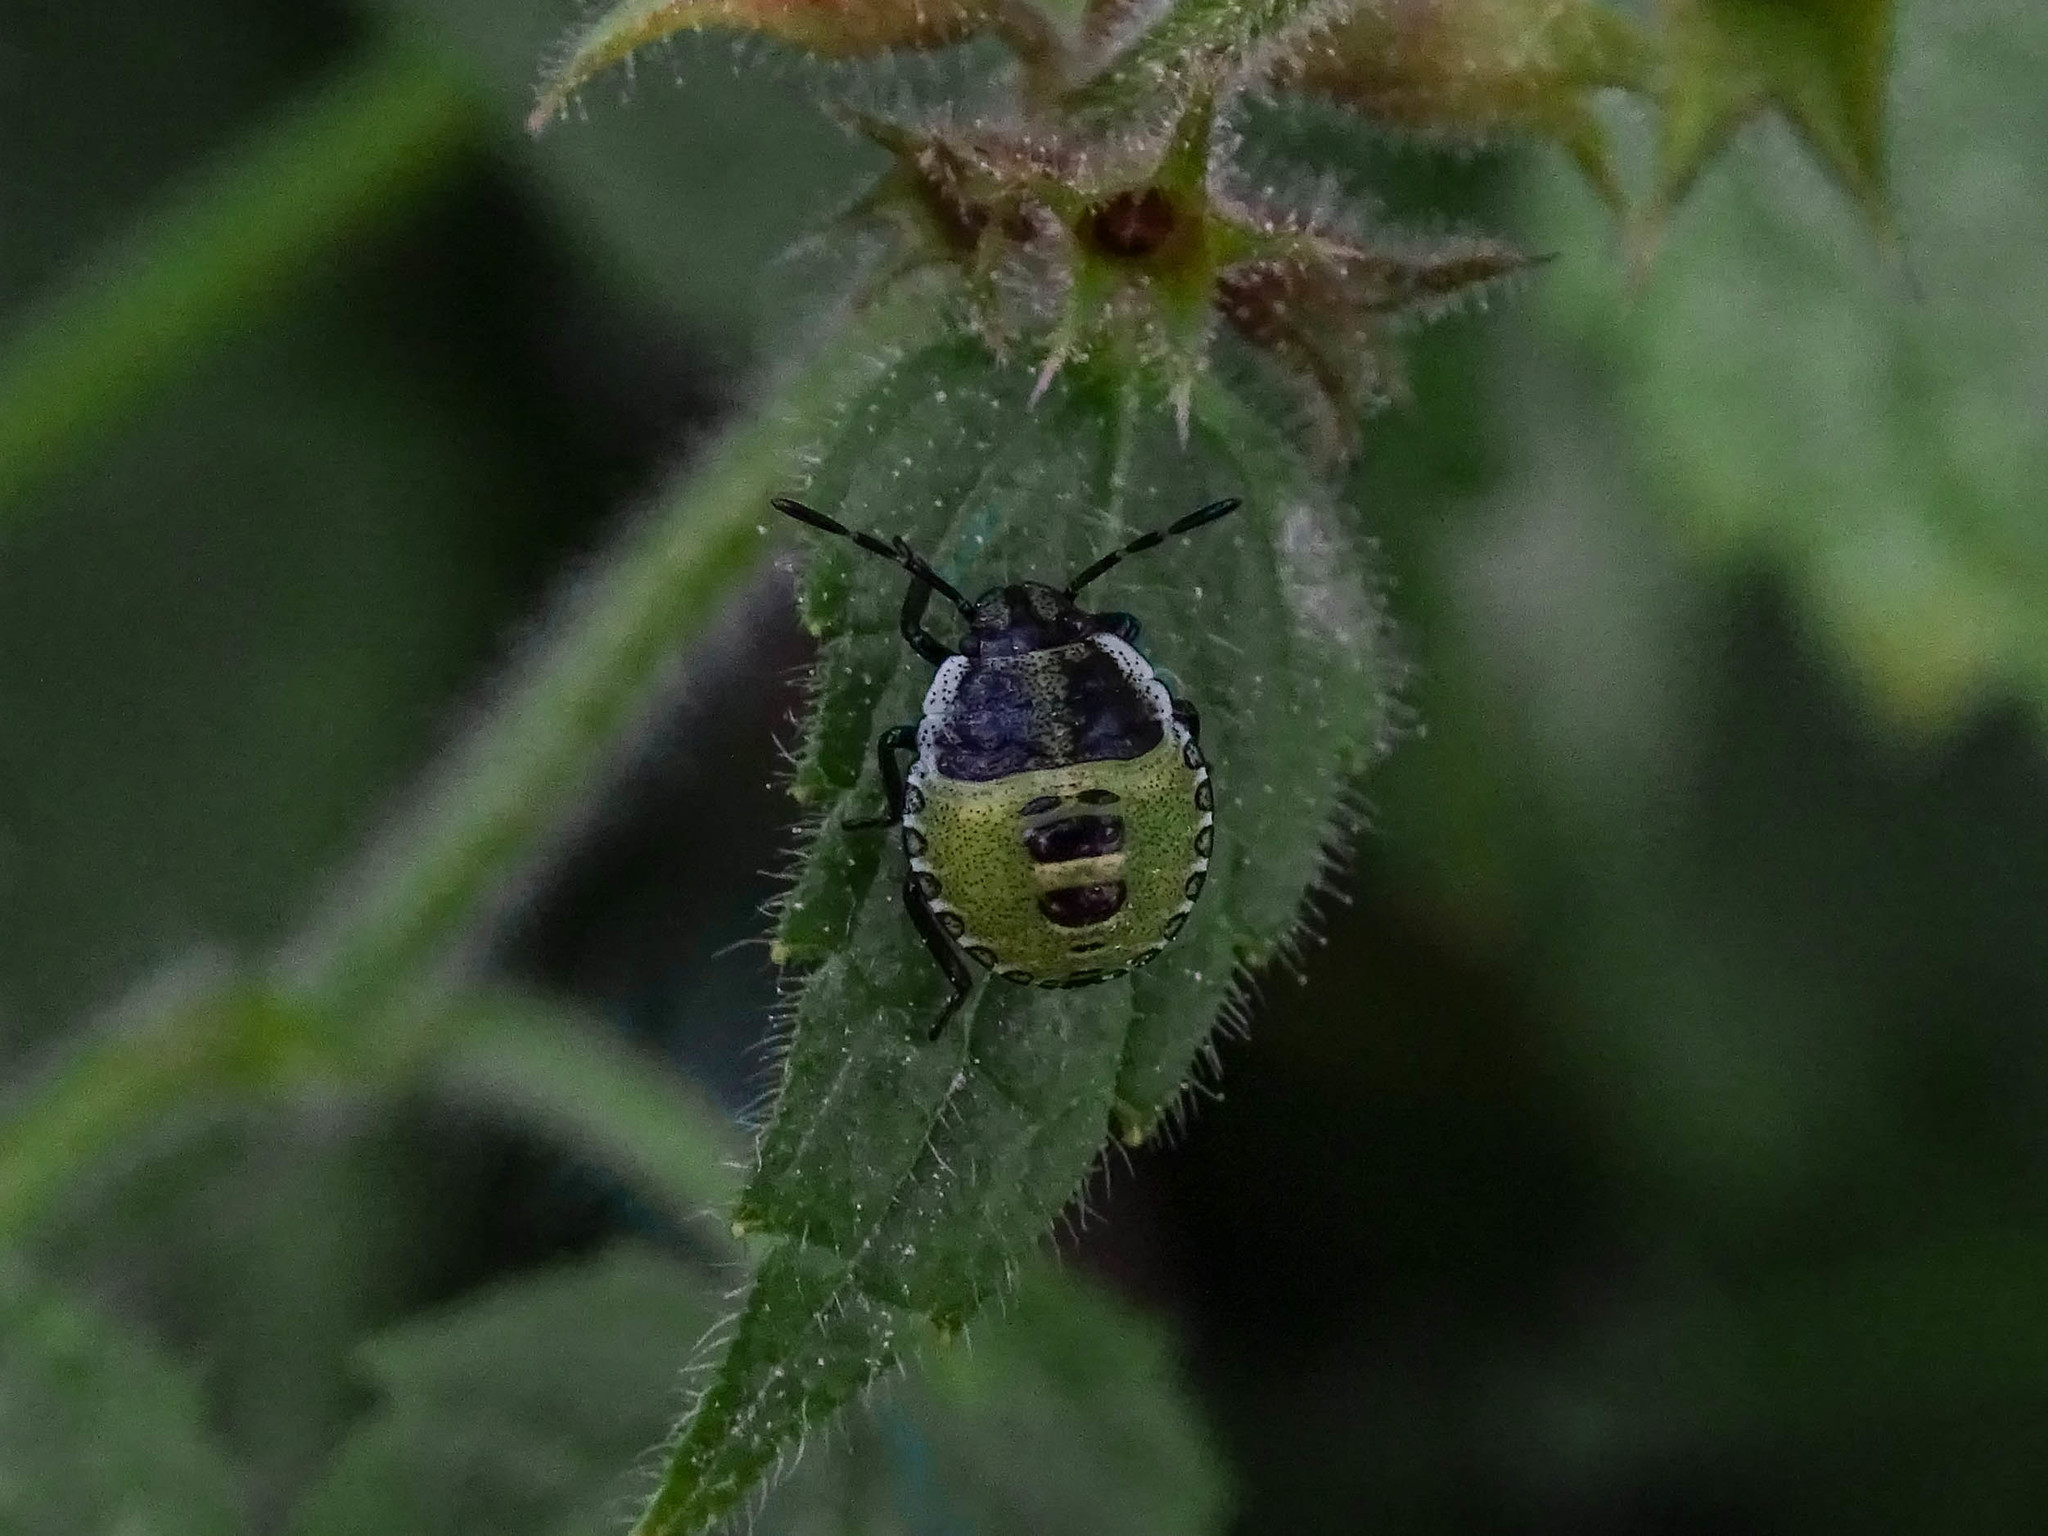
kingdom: Animalia
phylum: Arthropoda
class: Insecta
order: Hemiptera
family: Pentatomidae
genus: Palomena
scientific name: Palomena prasina
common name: Green shieldbug
